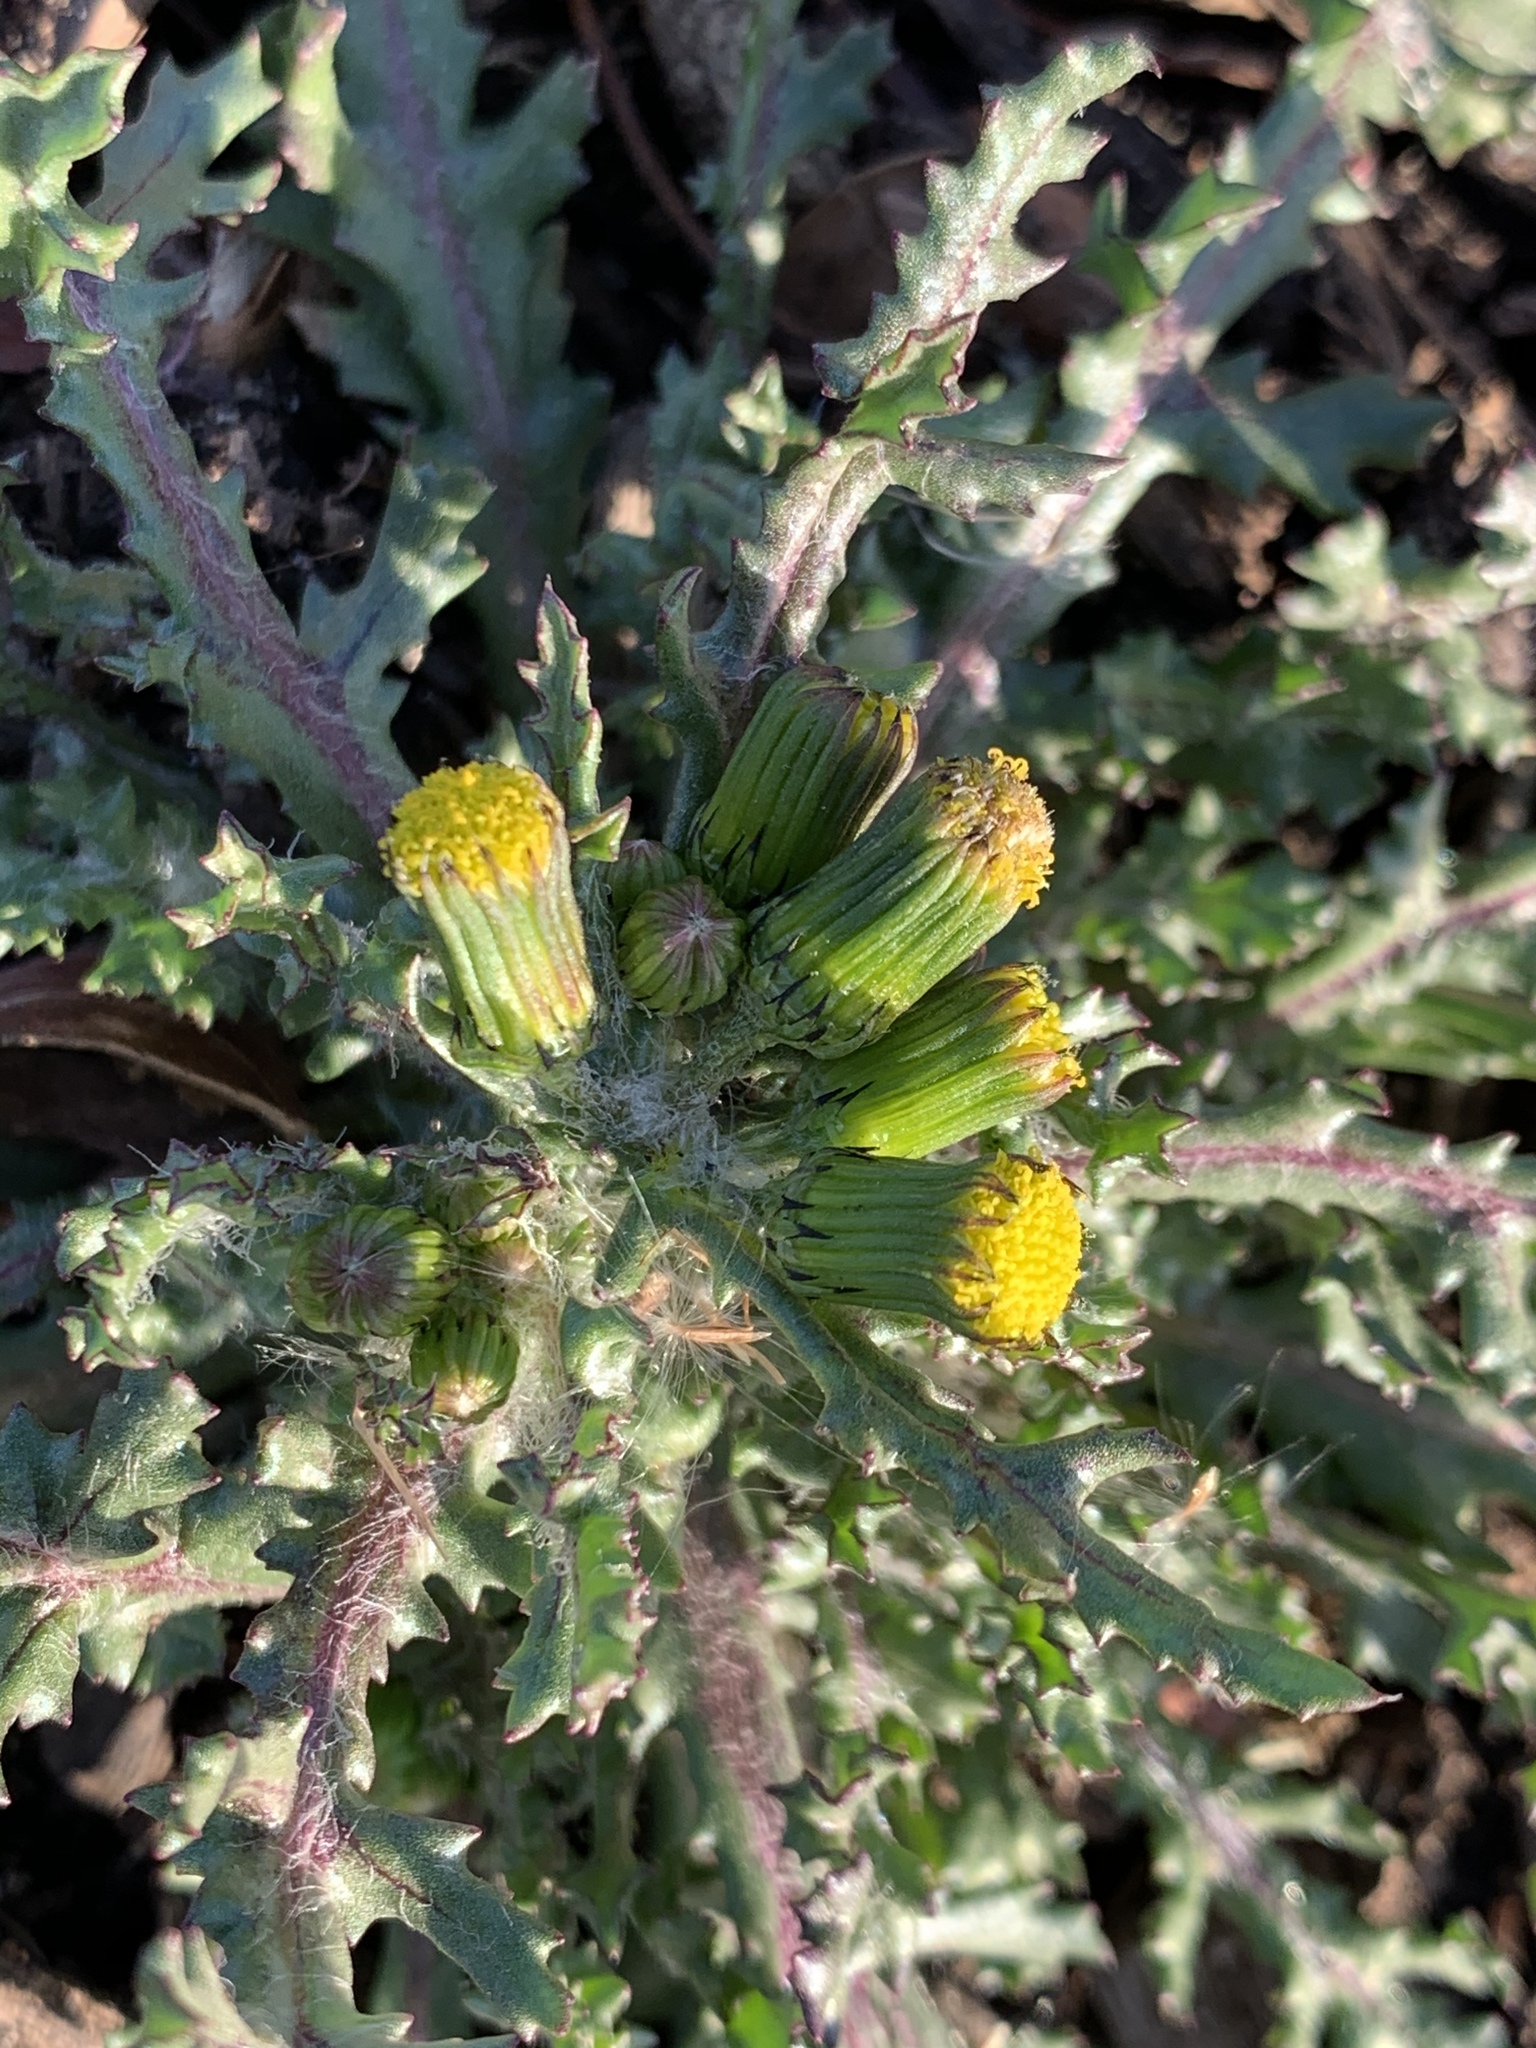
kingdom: Plantae
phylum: Tracheophyta
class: Magnoliopsida
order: Asterales
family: Asteraceae
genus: Senecio
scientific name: Senecio vulgaris
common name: Old-man-in-the-spring
